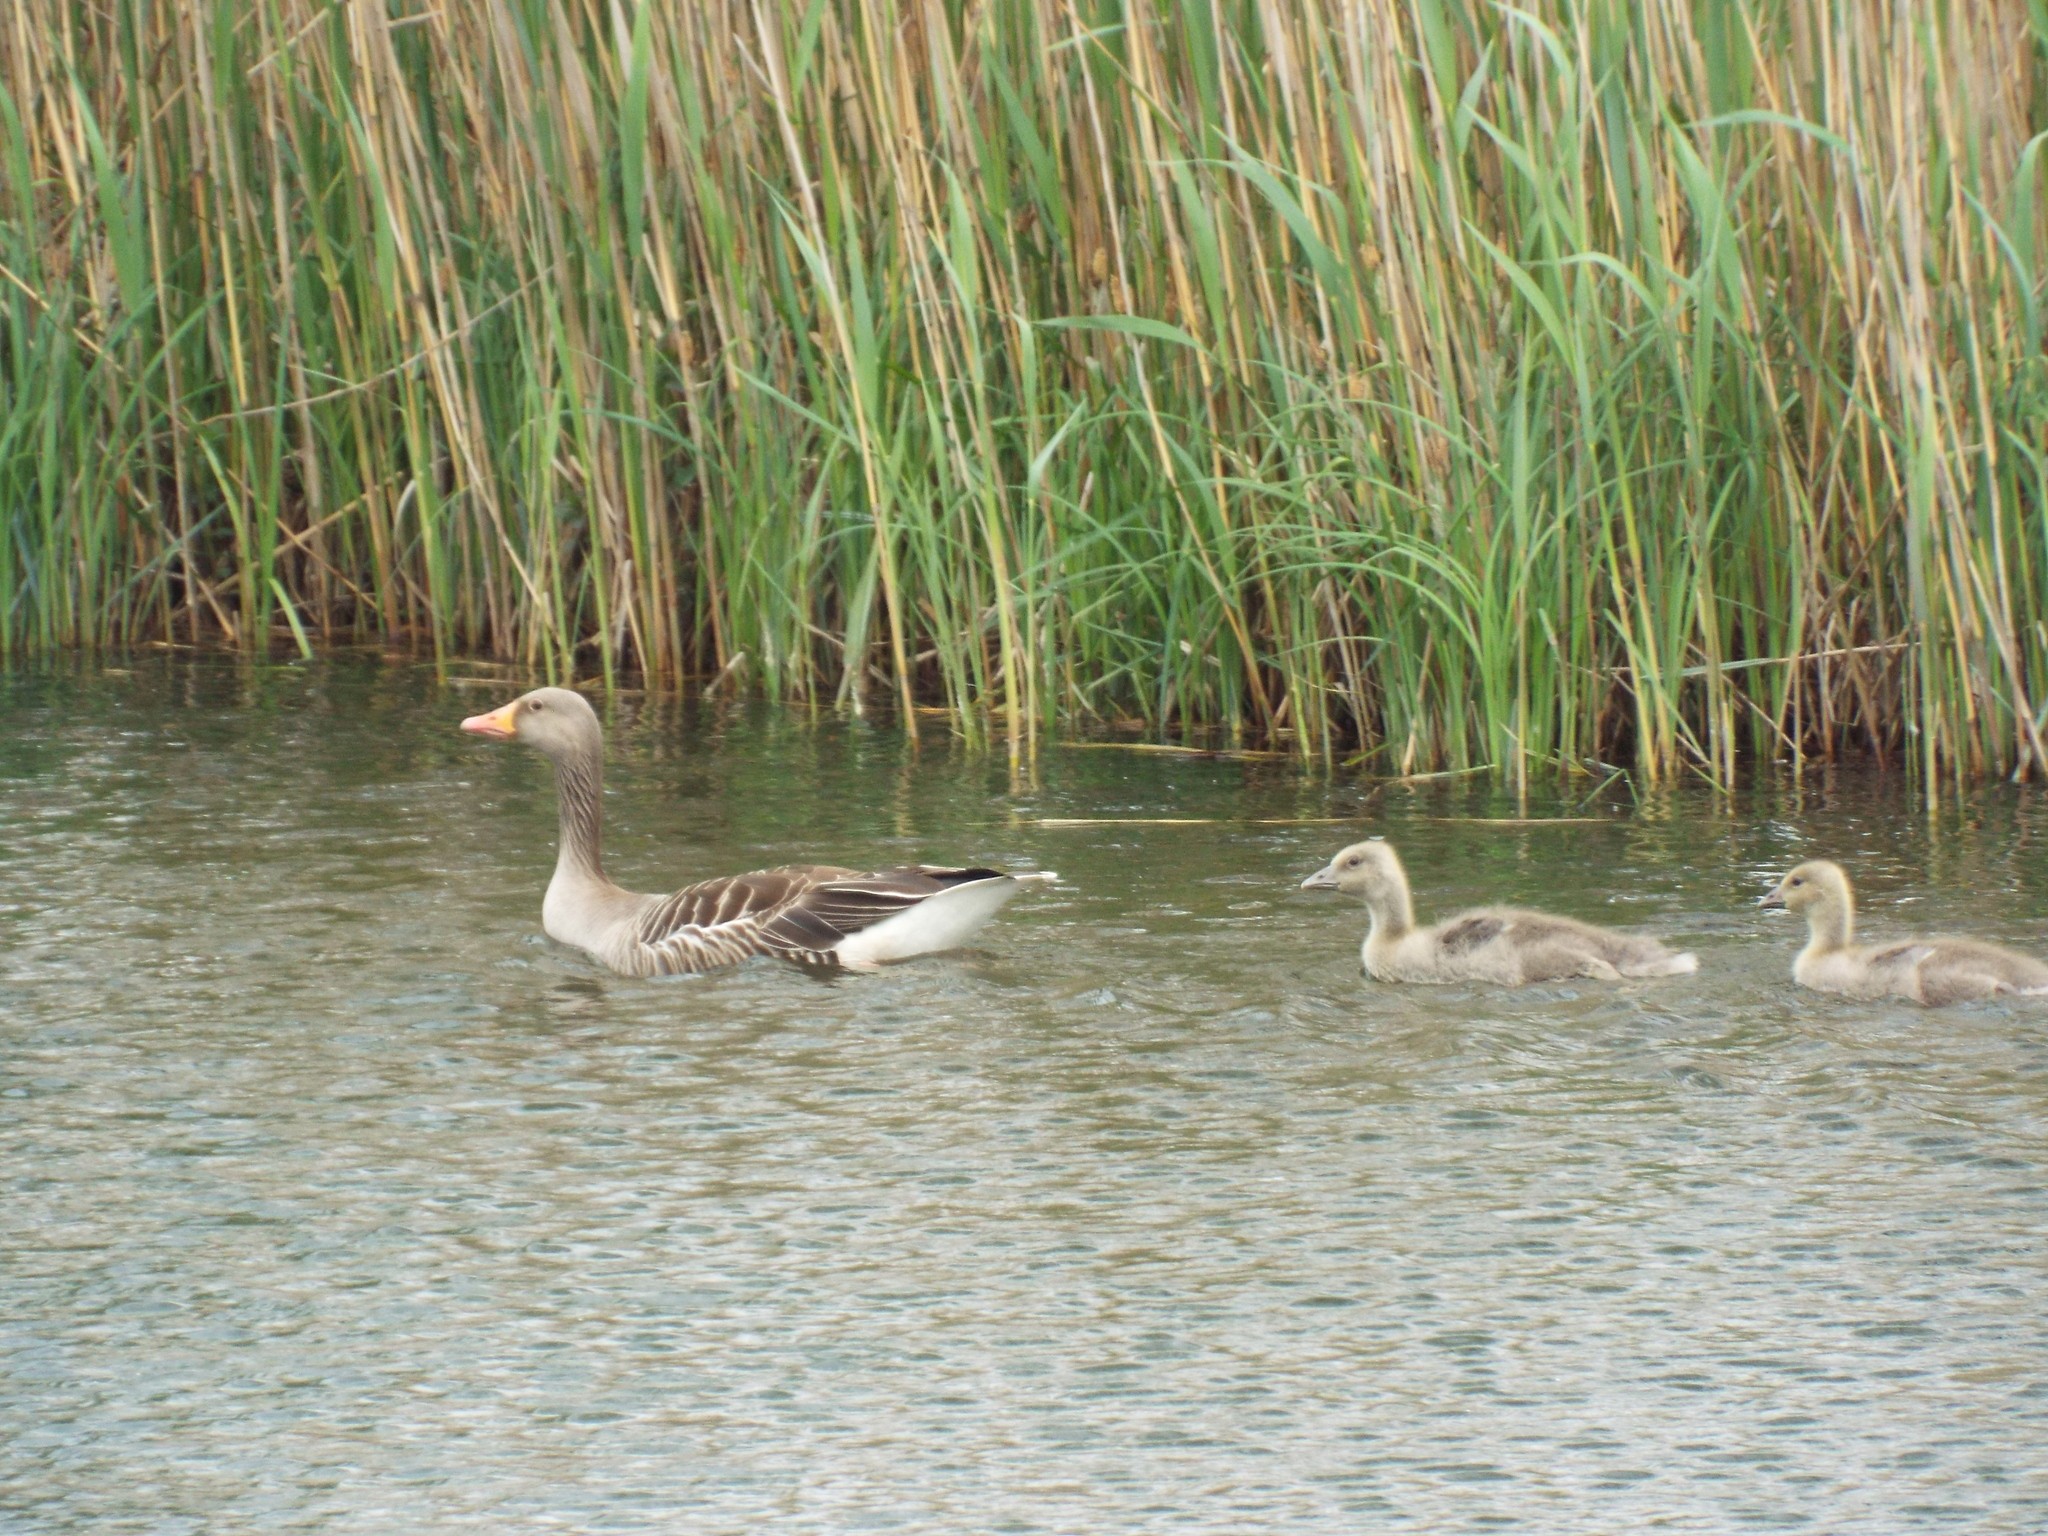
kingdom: Animalia
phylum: Chordata
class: Aves
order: Anseriformes
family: Anatidae
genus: Anser
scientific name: Anser anser
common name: Greylag goose
